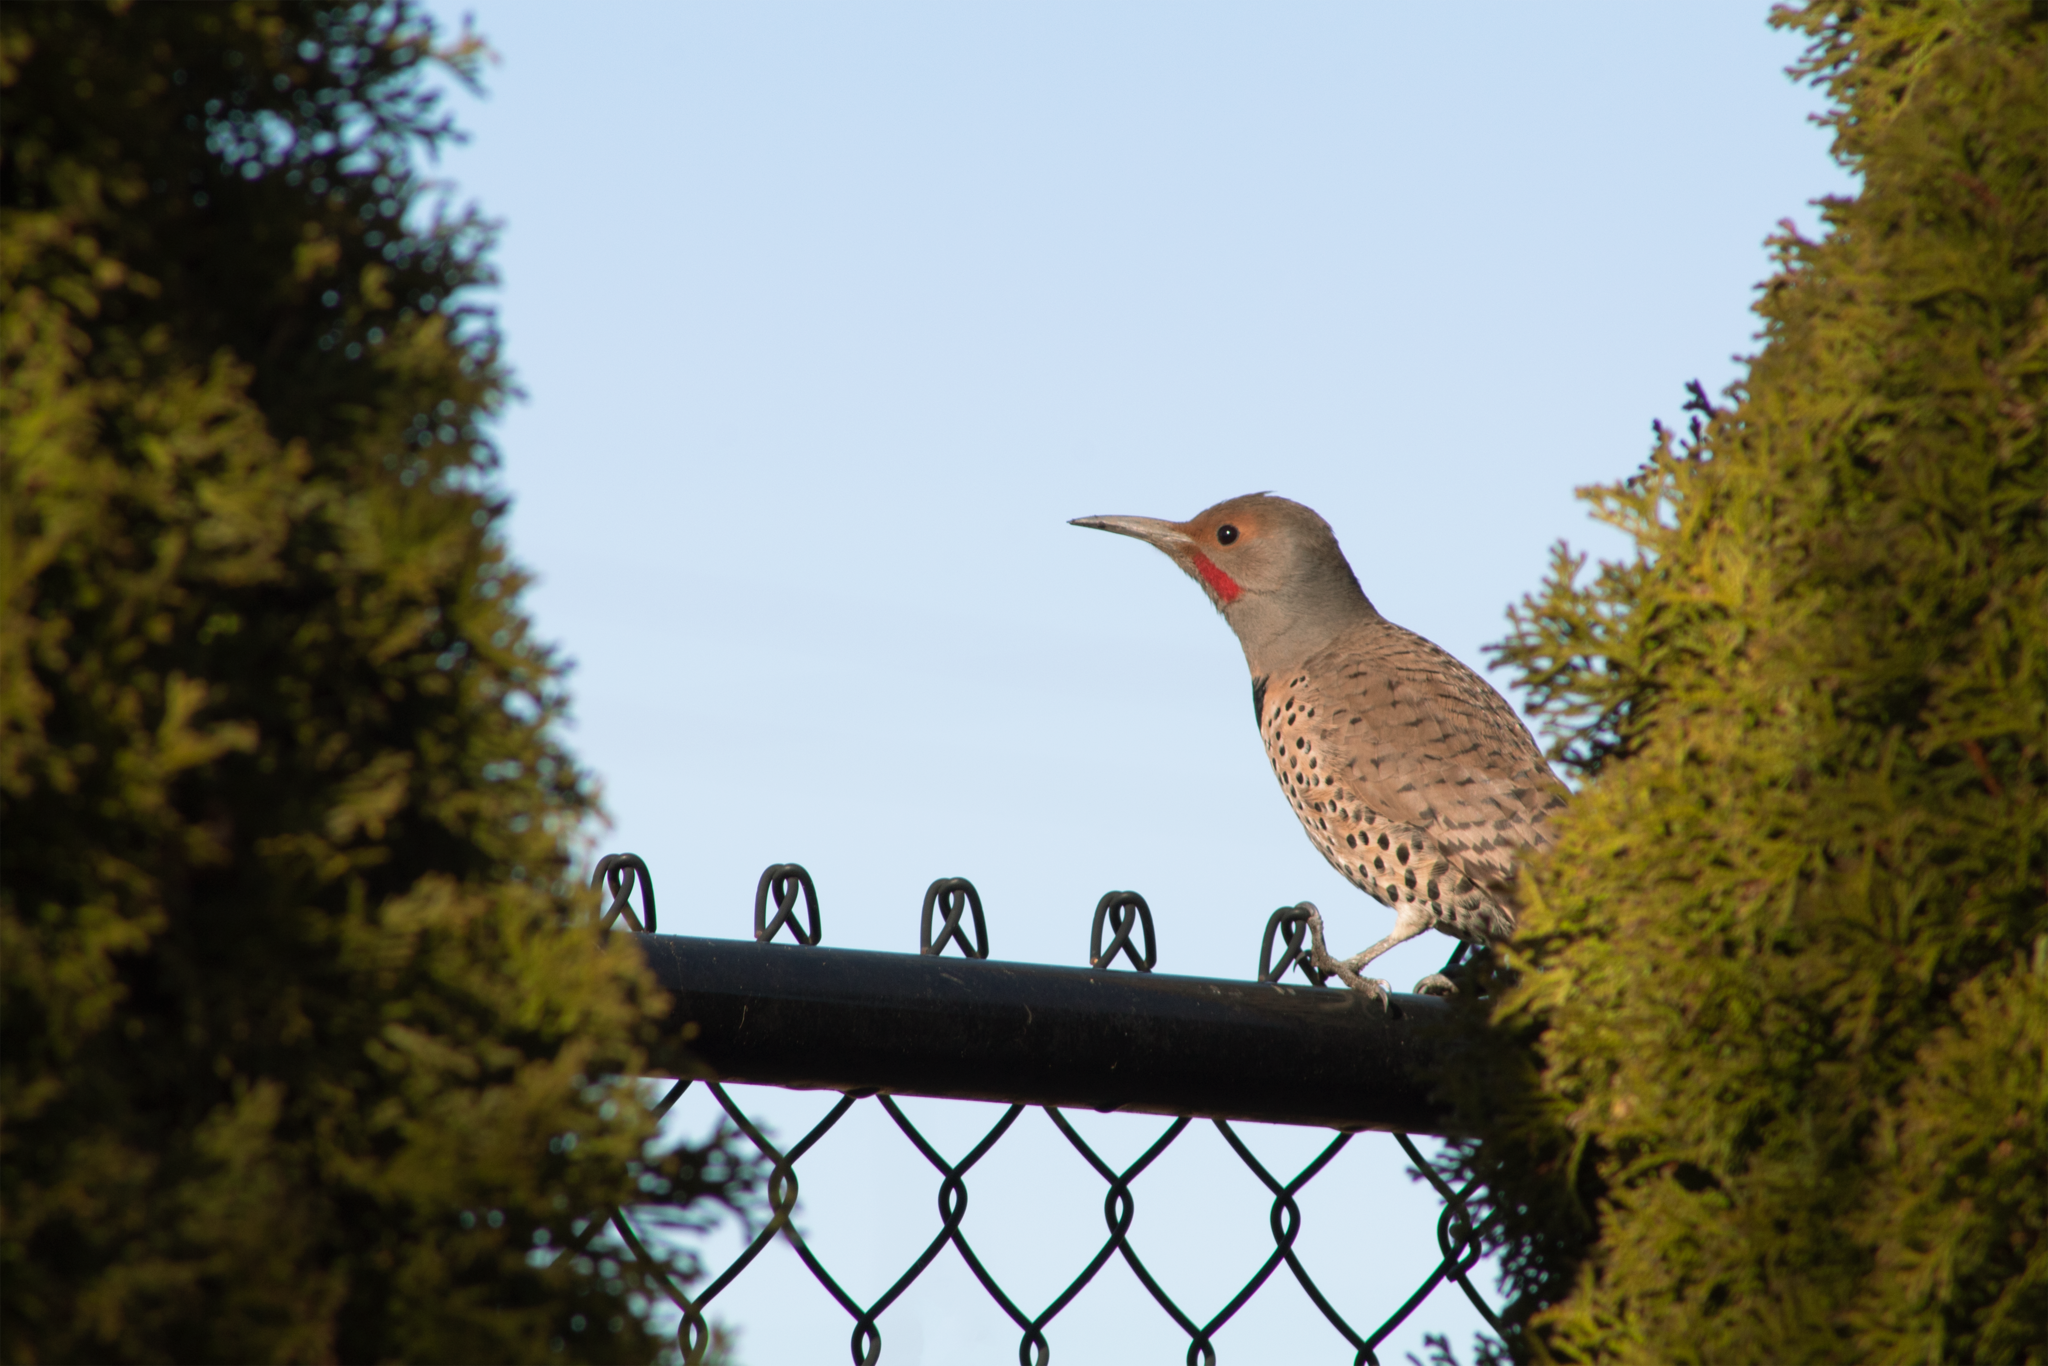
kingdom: Animalia
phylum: Chordata
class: Aves
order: Piciformes
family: Picidae
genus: Colaptes
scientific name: Colaptes auratus
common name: Northern flicker
